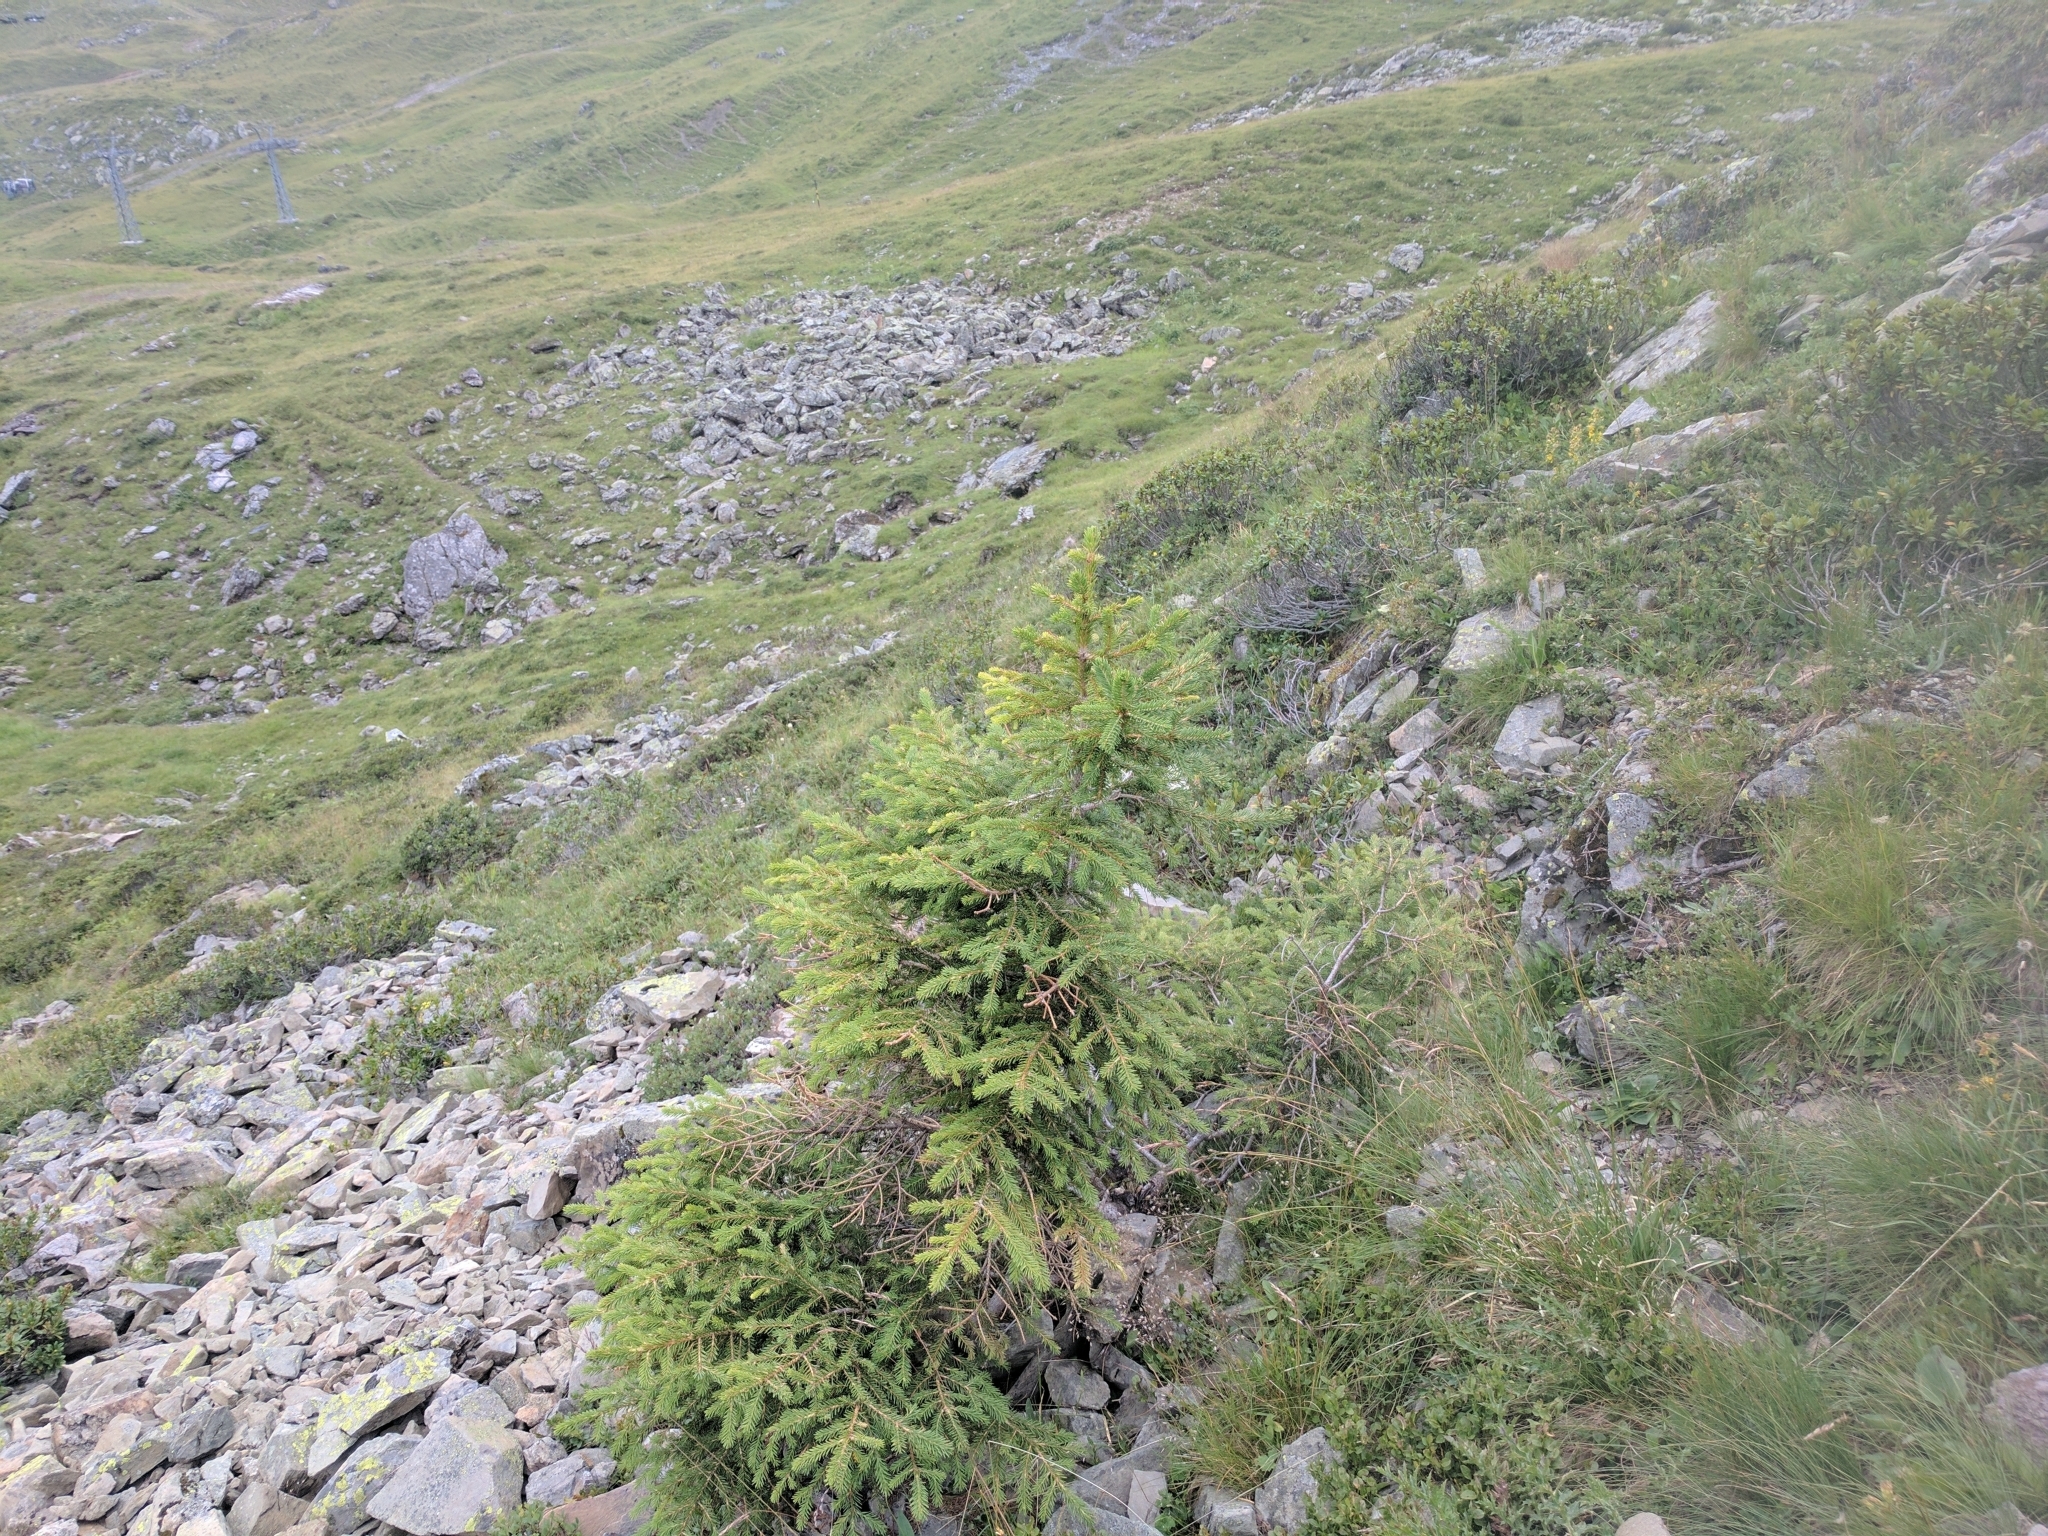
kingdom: Plantae
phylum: Tracheophyta
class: Pinopsida
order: Pinales
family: Pinaceae
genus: Picea
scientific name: Picea abies
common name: Norway spruce
